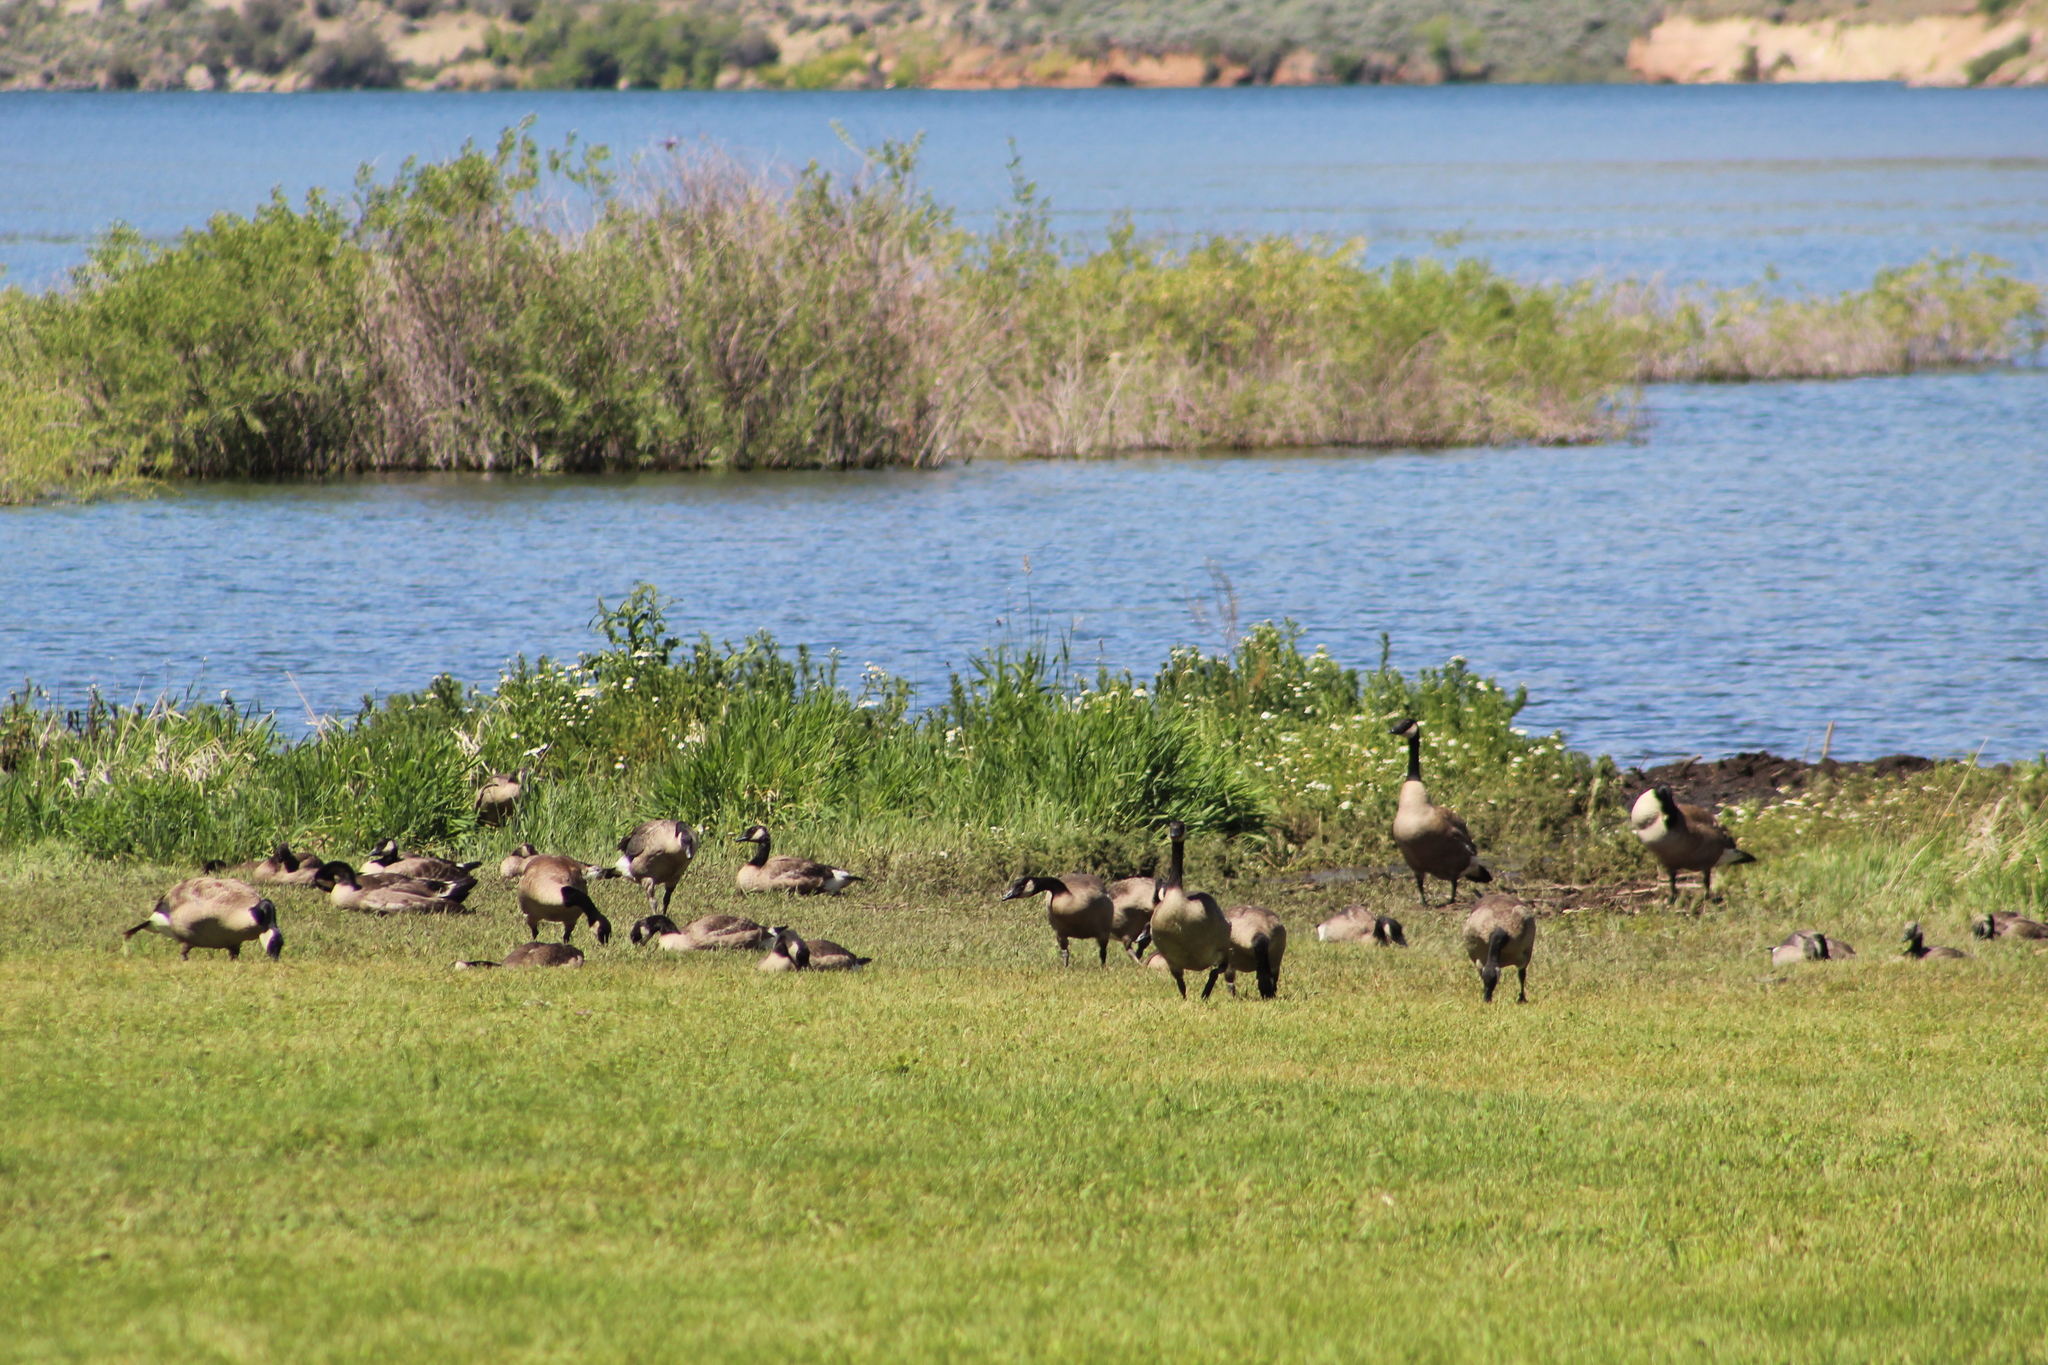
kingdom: Animalia
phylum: Chordata
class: Aves
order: Anseriformes
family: Anatidae
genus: Branta
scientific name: Branta canadensis
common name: Canada goose
